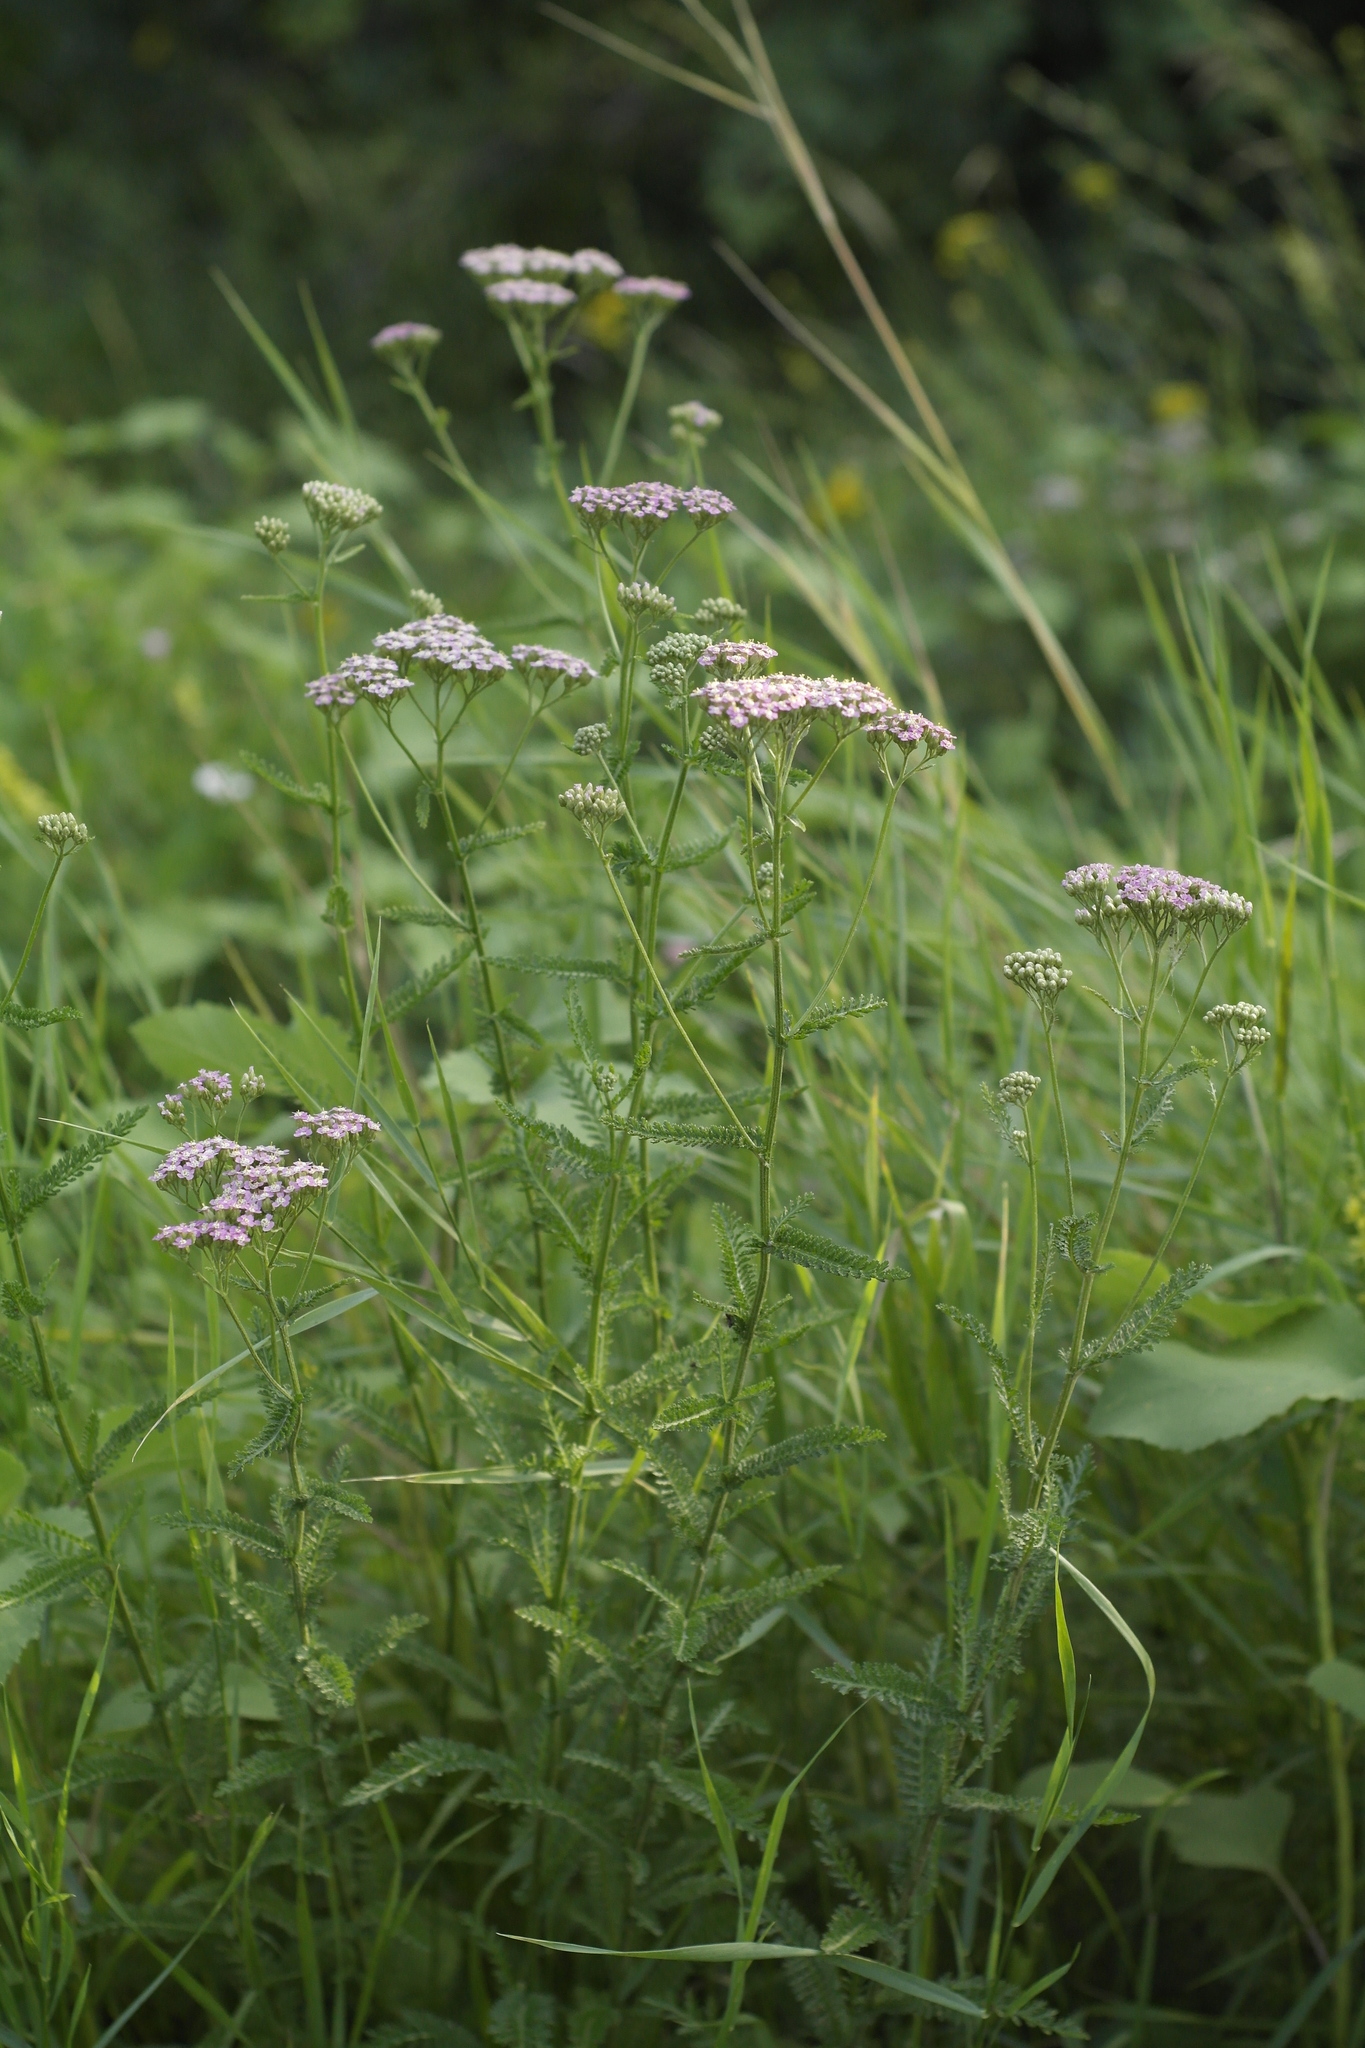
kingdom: Plantae
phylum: Tracheophyta
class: Magnoliopsida
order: Asterales
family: Asteraceae
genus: Achillea
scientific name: Achillea millefolium
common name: Yarrow
